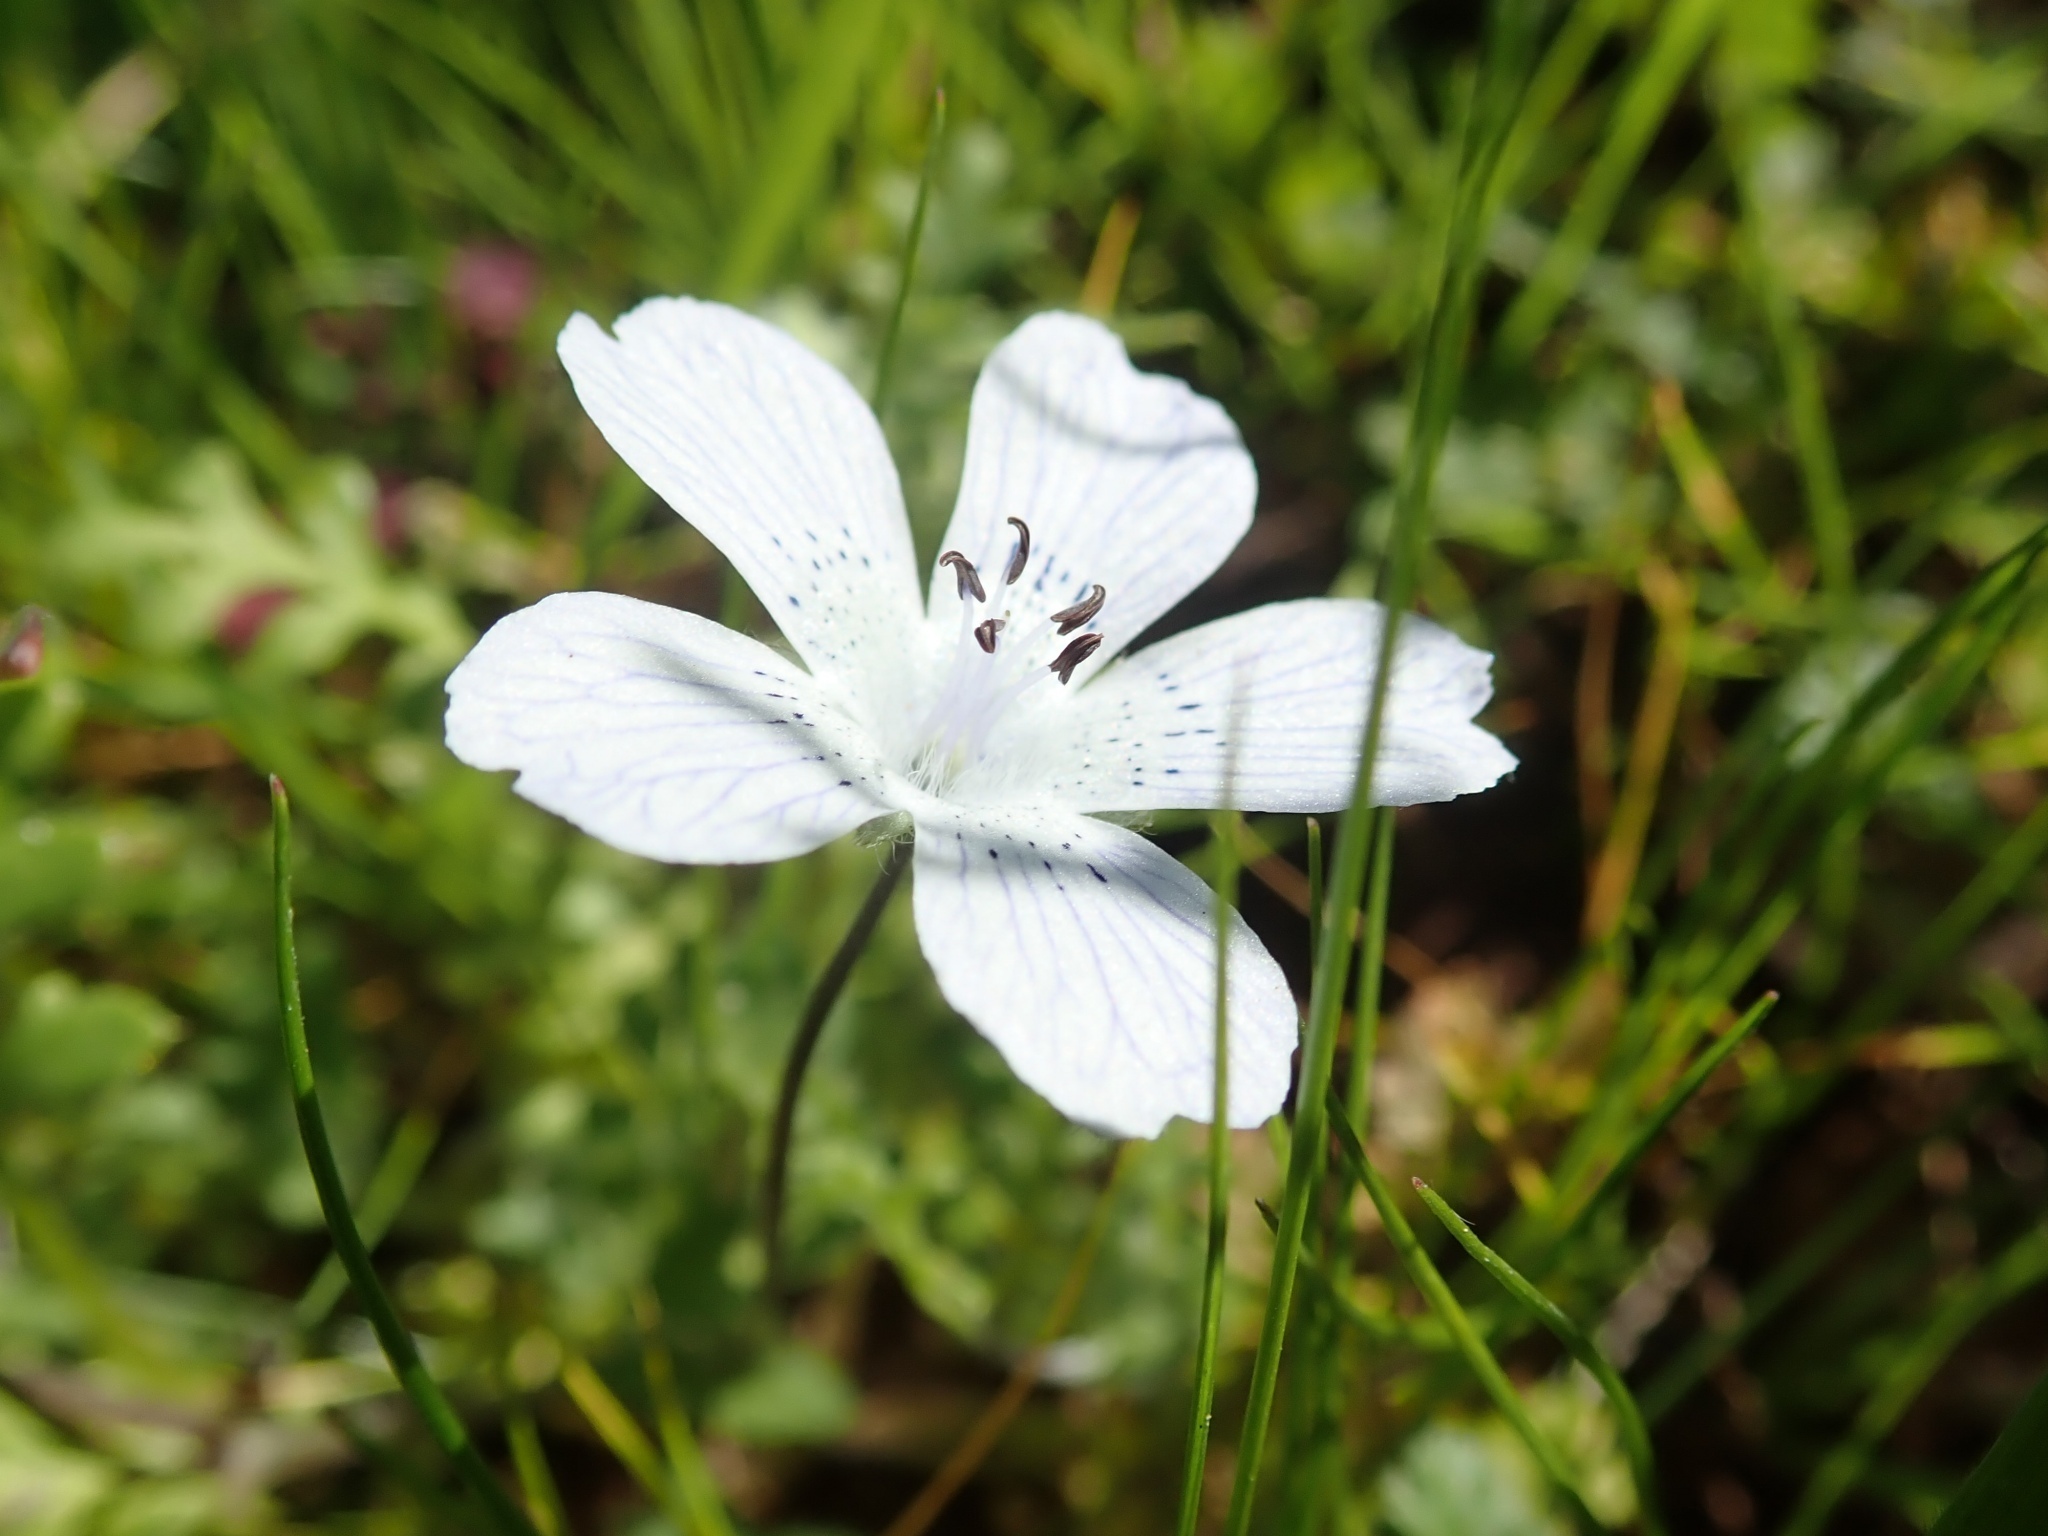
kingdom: Plantae
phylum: Tracheophyta
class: Magnoliopsida
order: Boraginales
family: Hydrophyllaceae
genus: Nemophila
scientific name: Nemophila menziesii
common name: Baby's-blue-eyes
